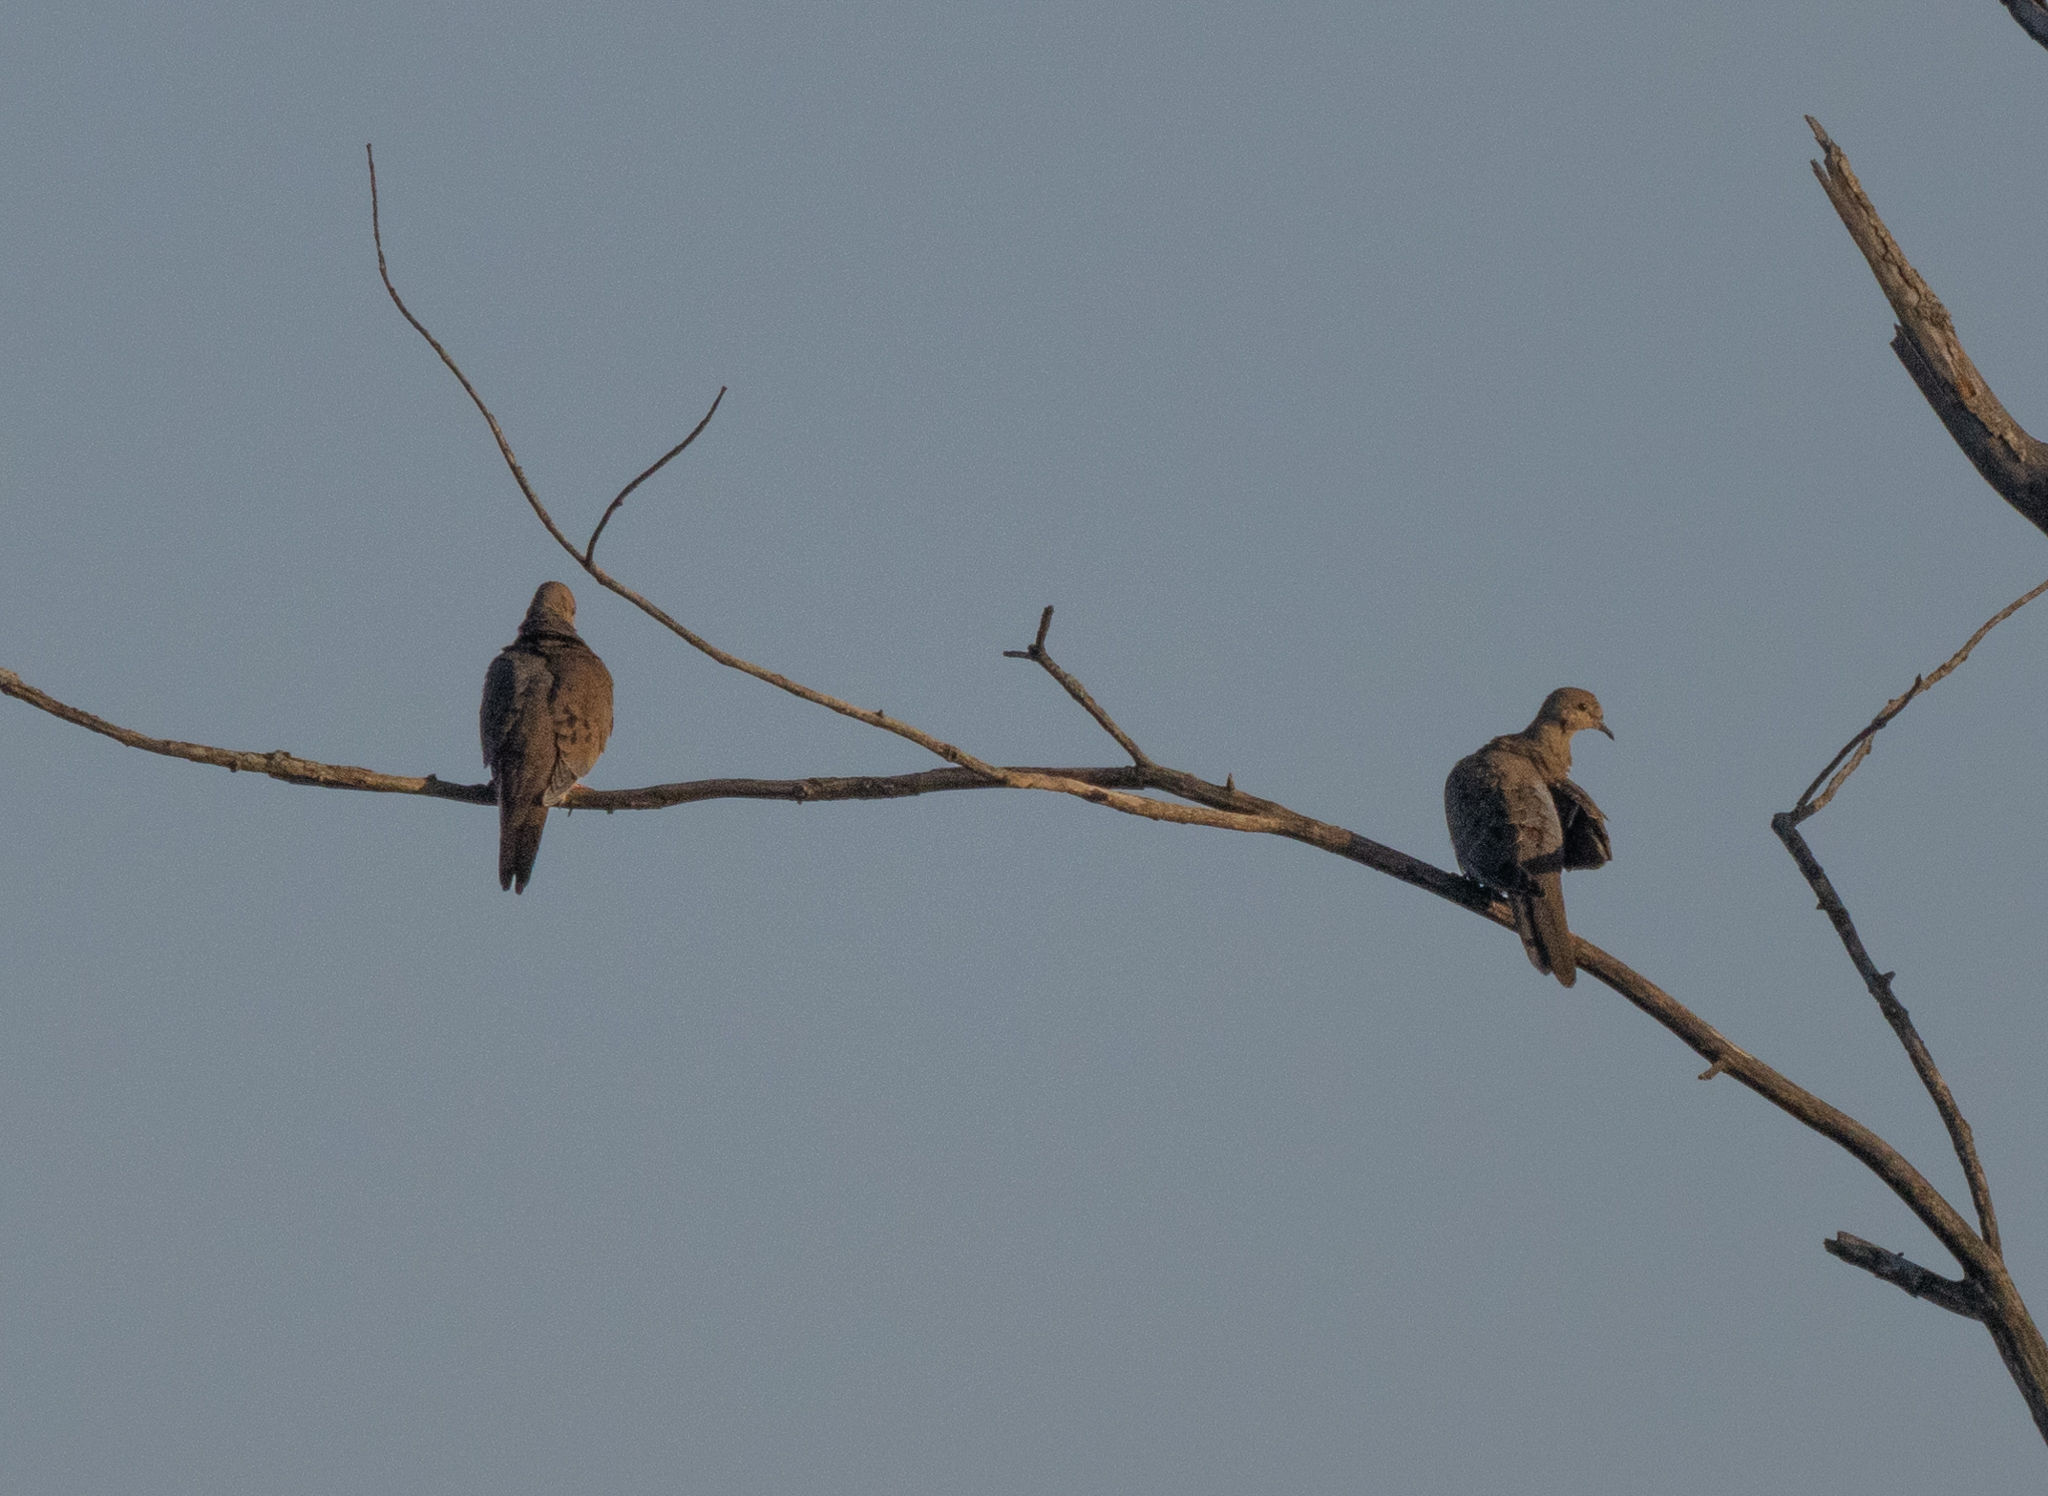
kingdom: Animalia
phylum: Chordata
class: Aves
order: Columbiformes
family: Columbidae
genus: Zenaida
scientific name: Zenaida macroura
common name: Mourning dove
